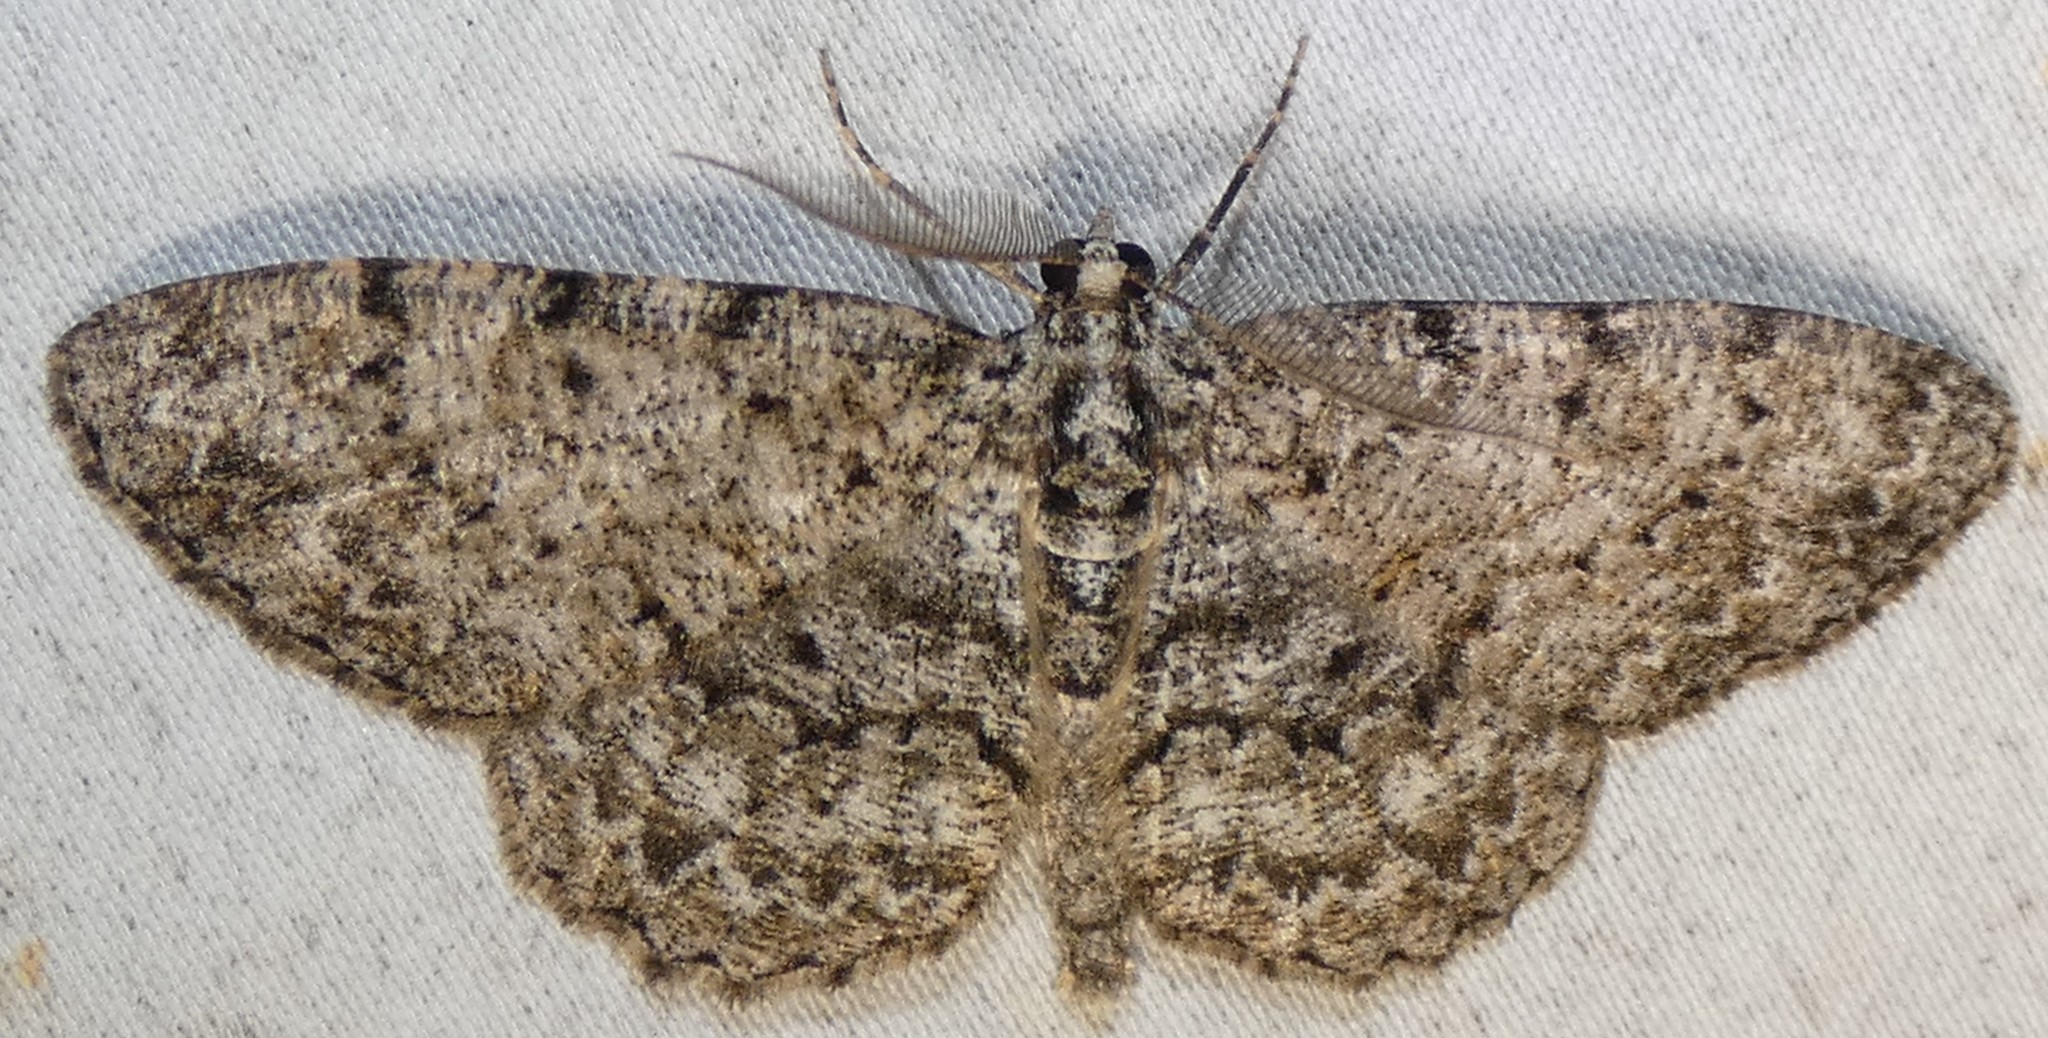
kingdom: Animalia
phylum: Arthropoda
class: Insecta
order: Lepidoptera
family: Geometridae
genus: Protoboarmia
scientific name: Protoboarmia porcelaria
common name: Porcelain gray
